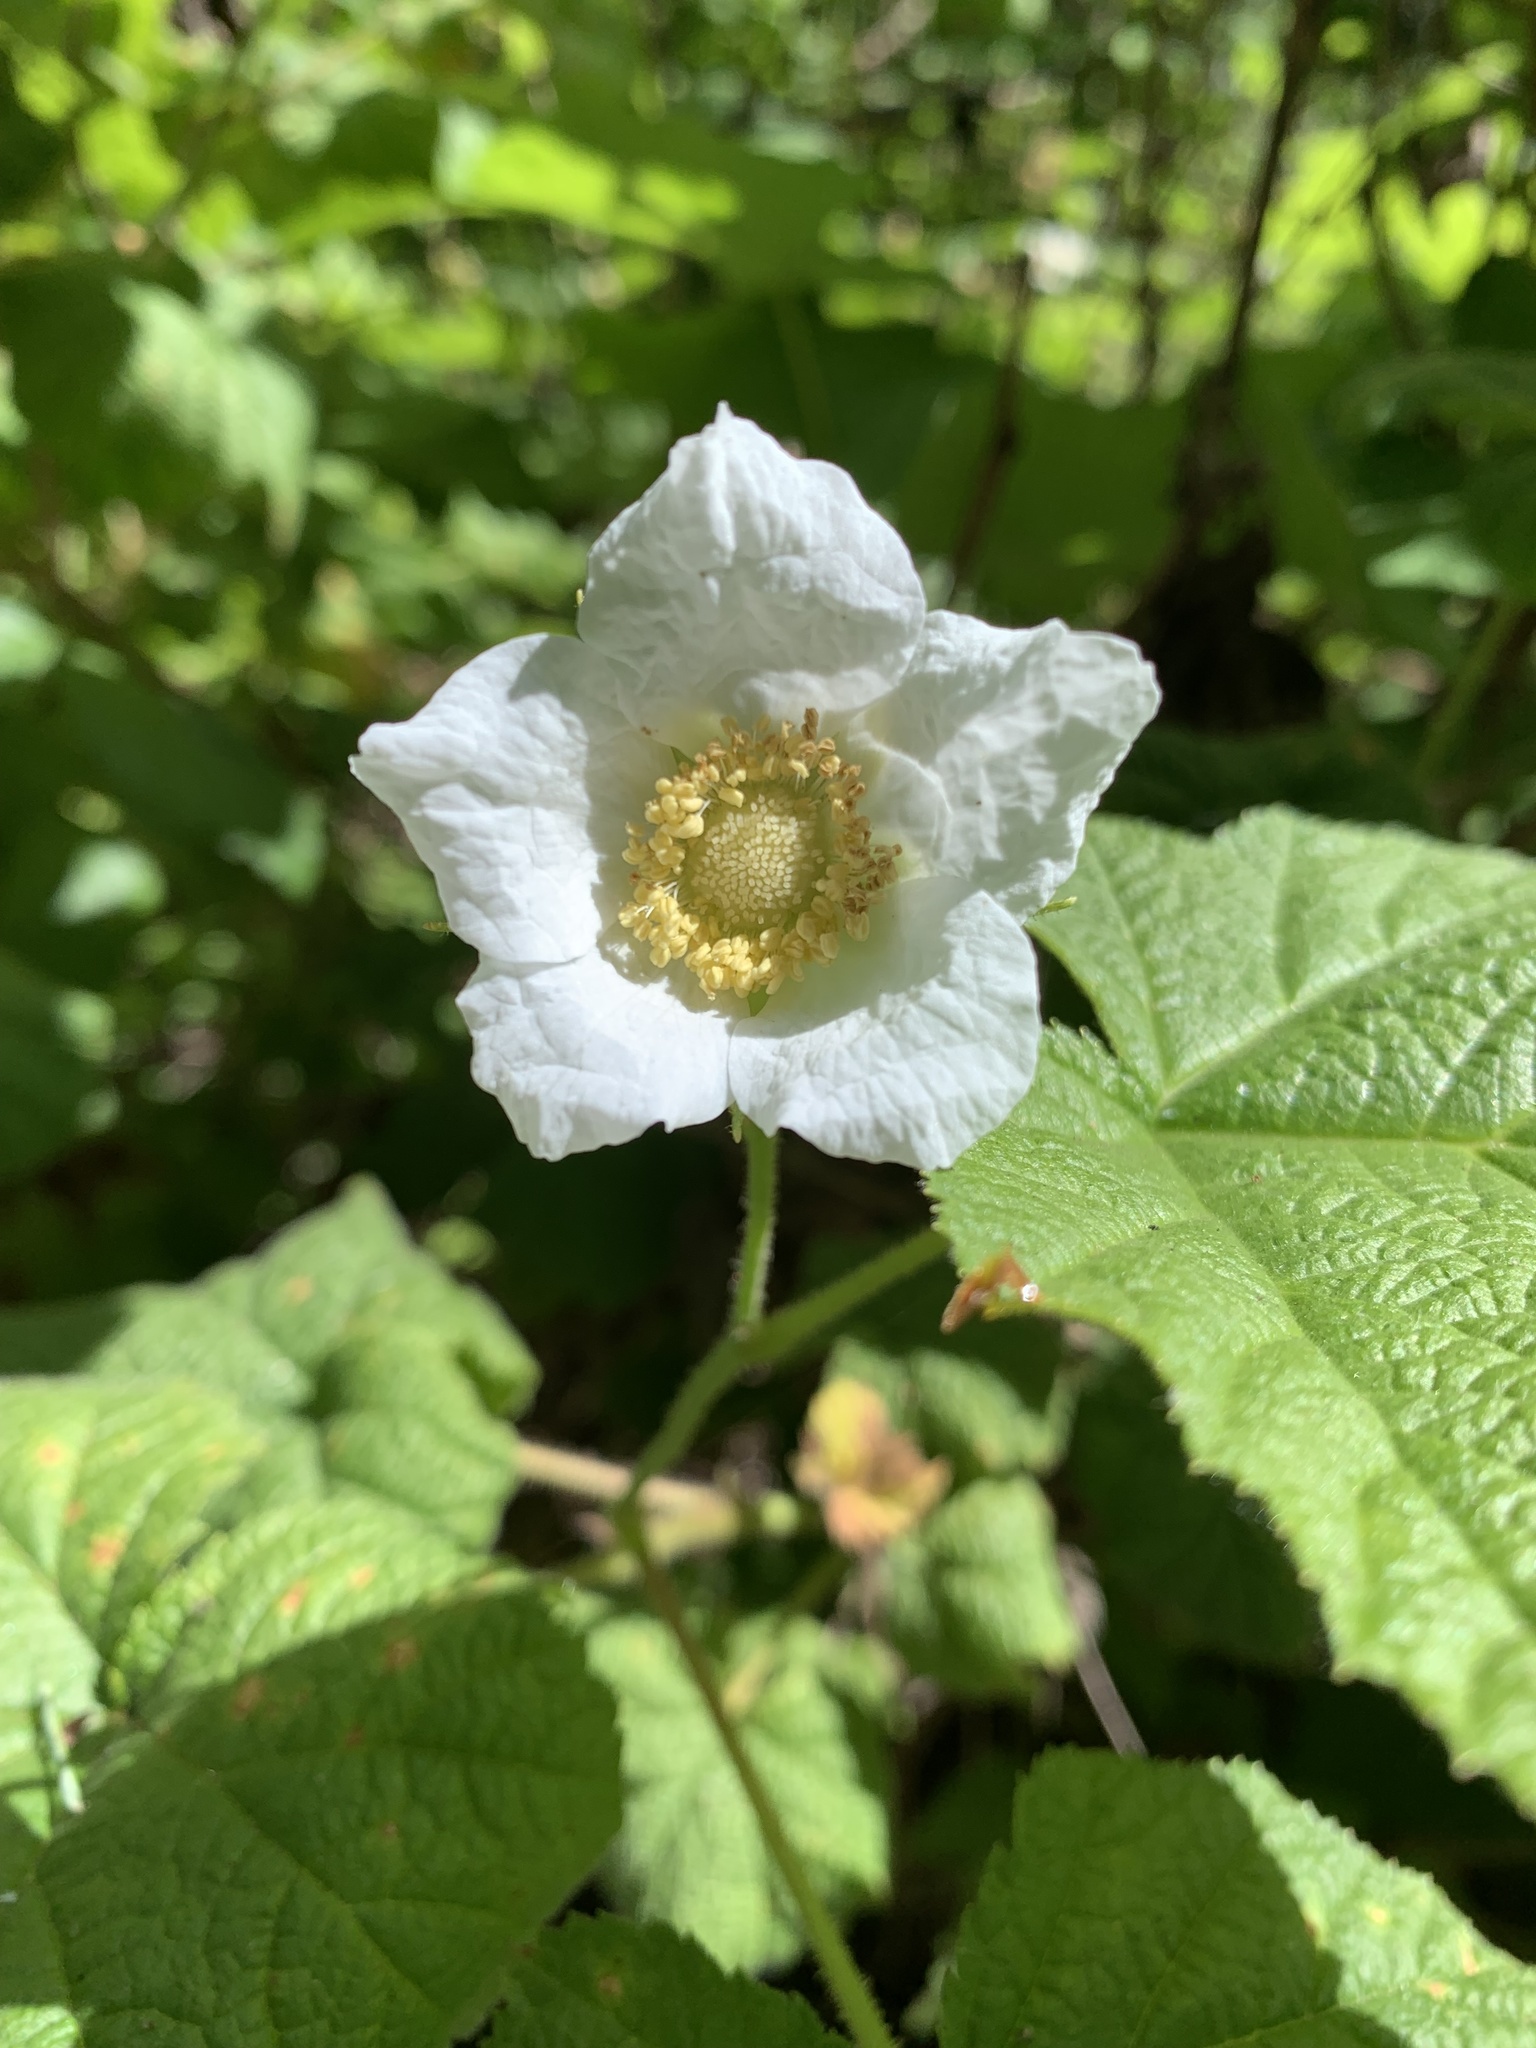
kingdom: Plantae
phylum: Tracheophyta
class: Magnoliopsida
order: Rosales
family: Rosaceae
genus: Rubus
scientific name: Rubus parviflorus
